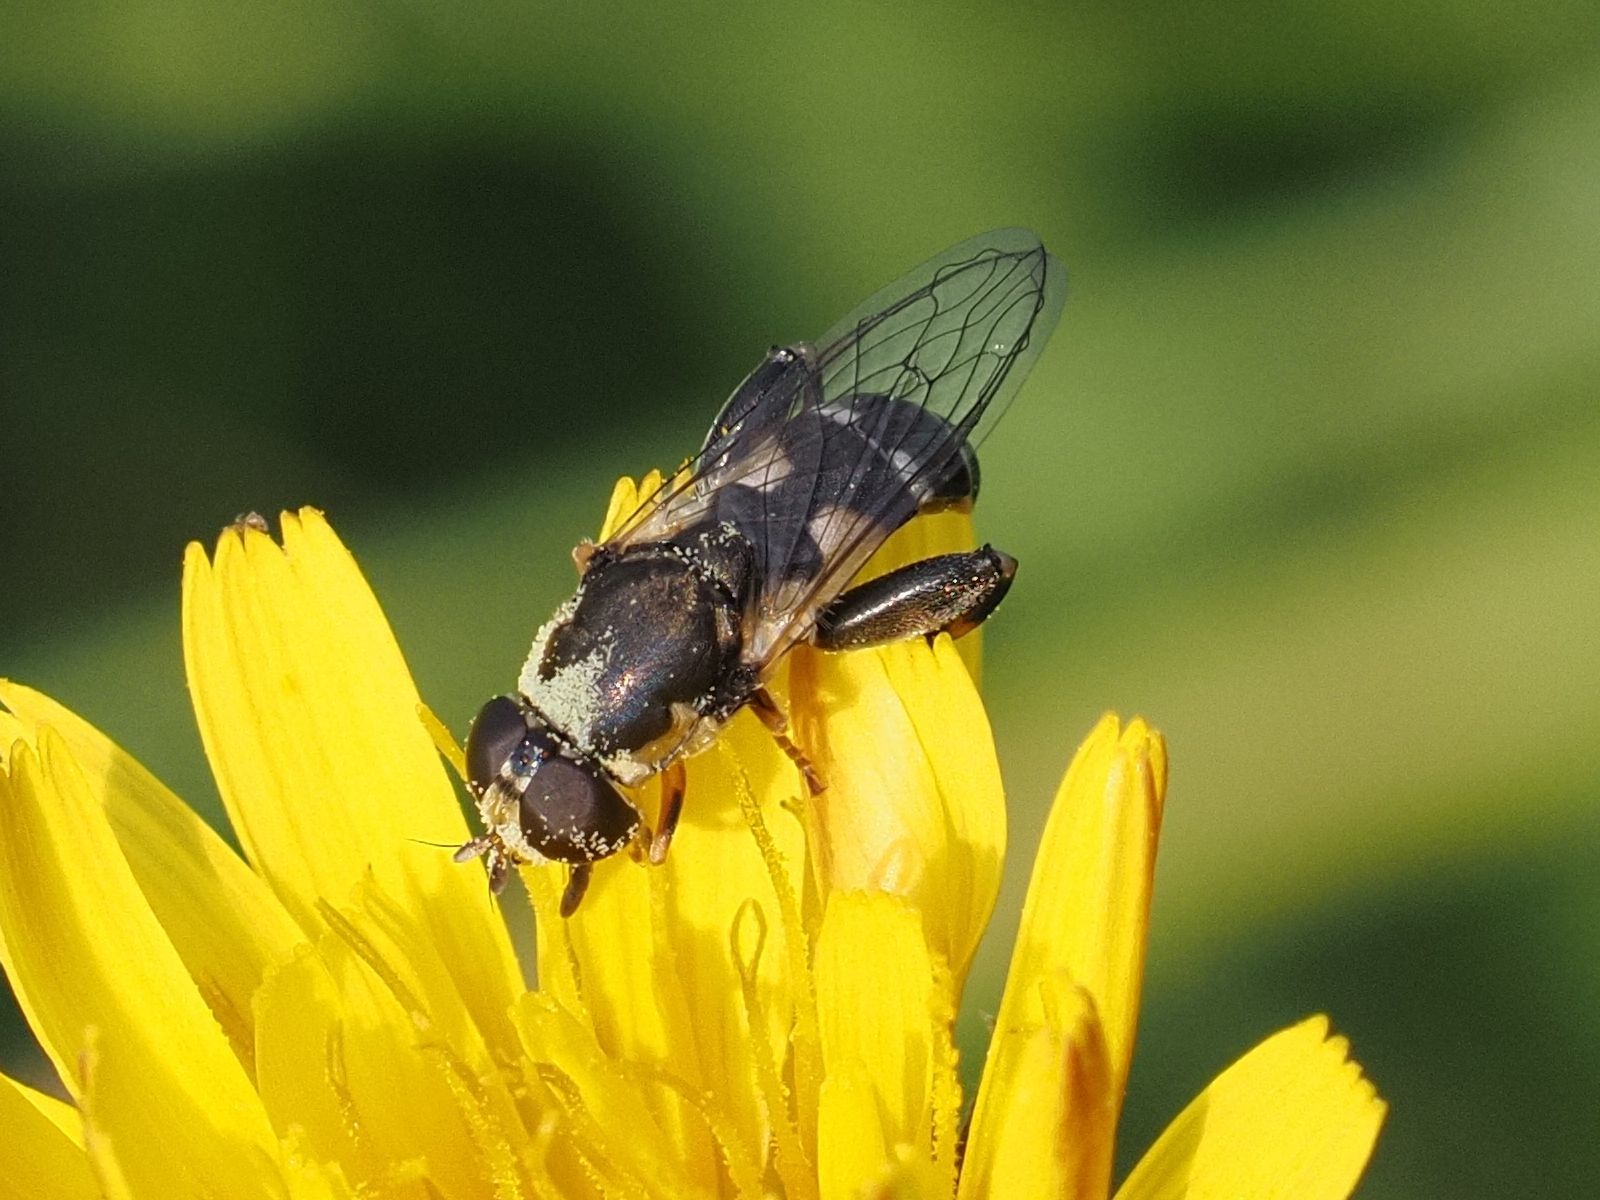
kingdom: Animalia
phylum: Arthropoda
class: Insecta
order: Diptera
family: Syrphidae
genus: Syritta
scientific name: Syritta pipiens
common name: Hover fly
